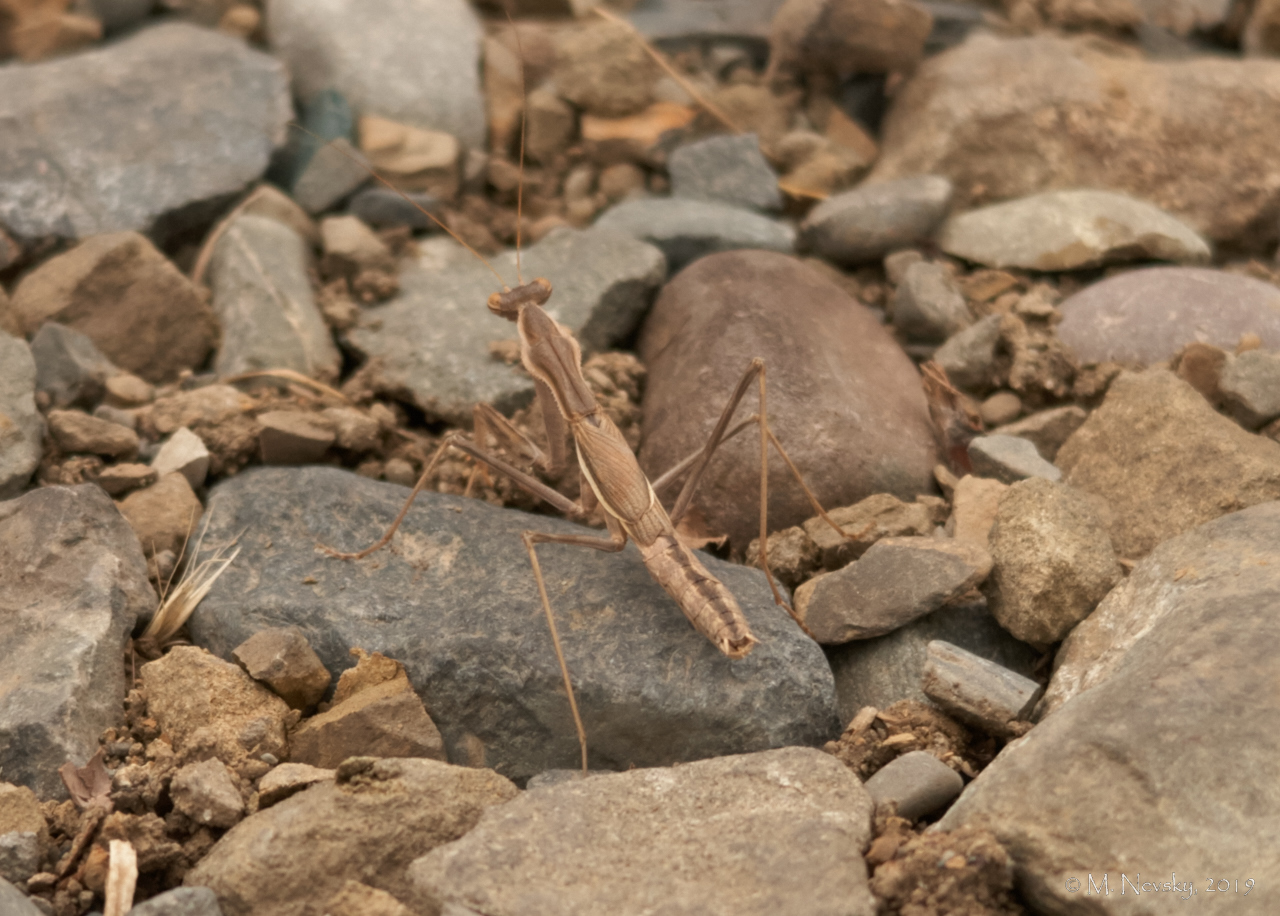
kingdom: Animalia
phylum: Arthropoda
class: Insecta
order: Mantodea
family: Rivetinidae
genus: Bolivaria
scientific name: Bolivaria brachyptera
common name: Bolivar's short winged mantis
